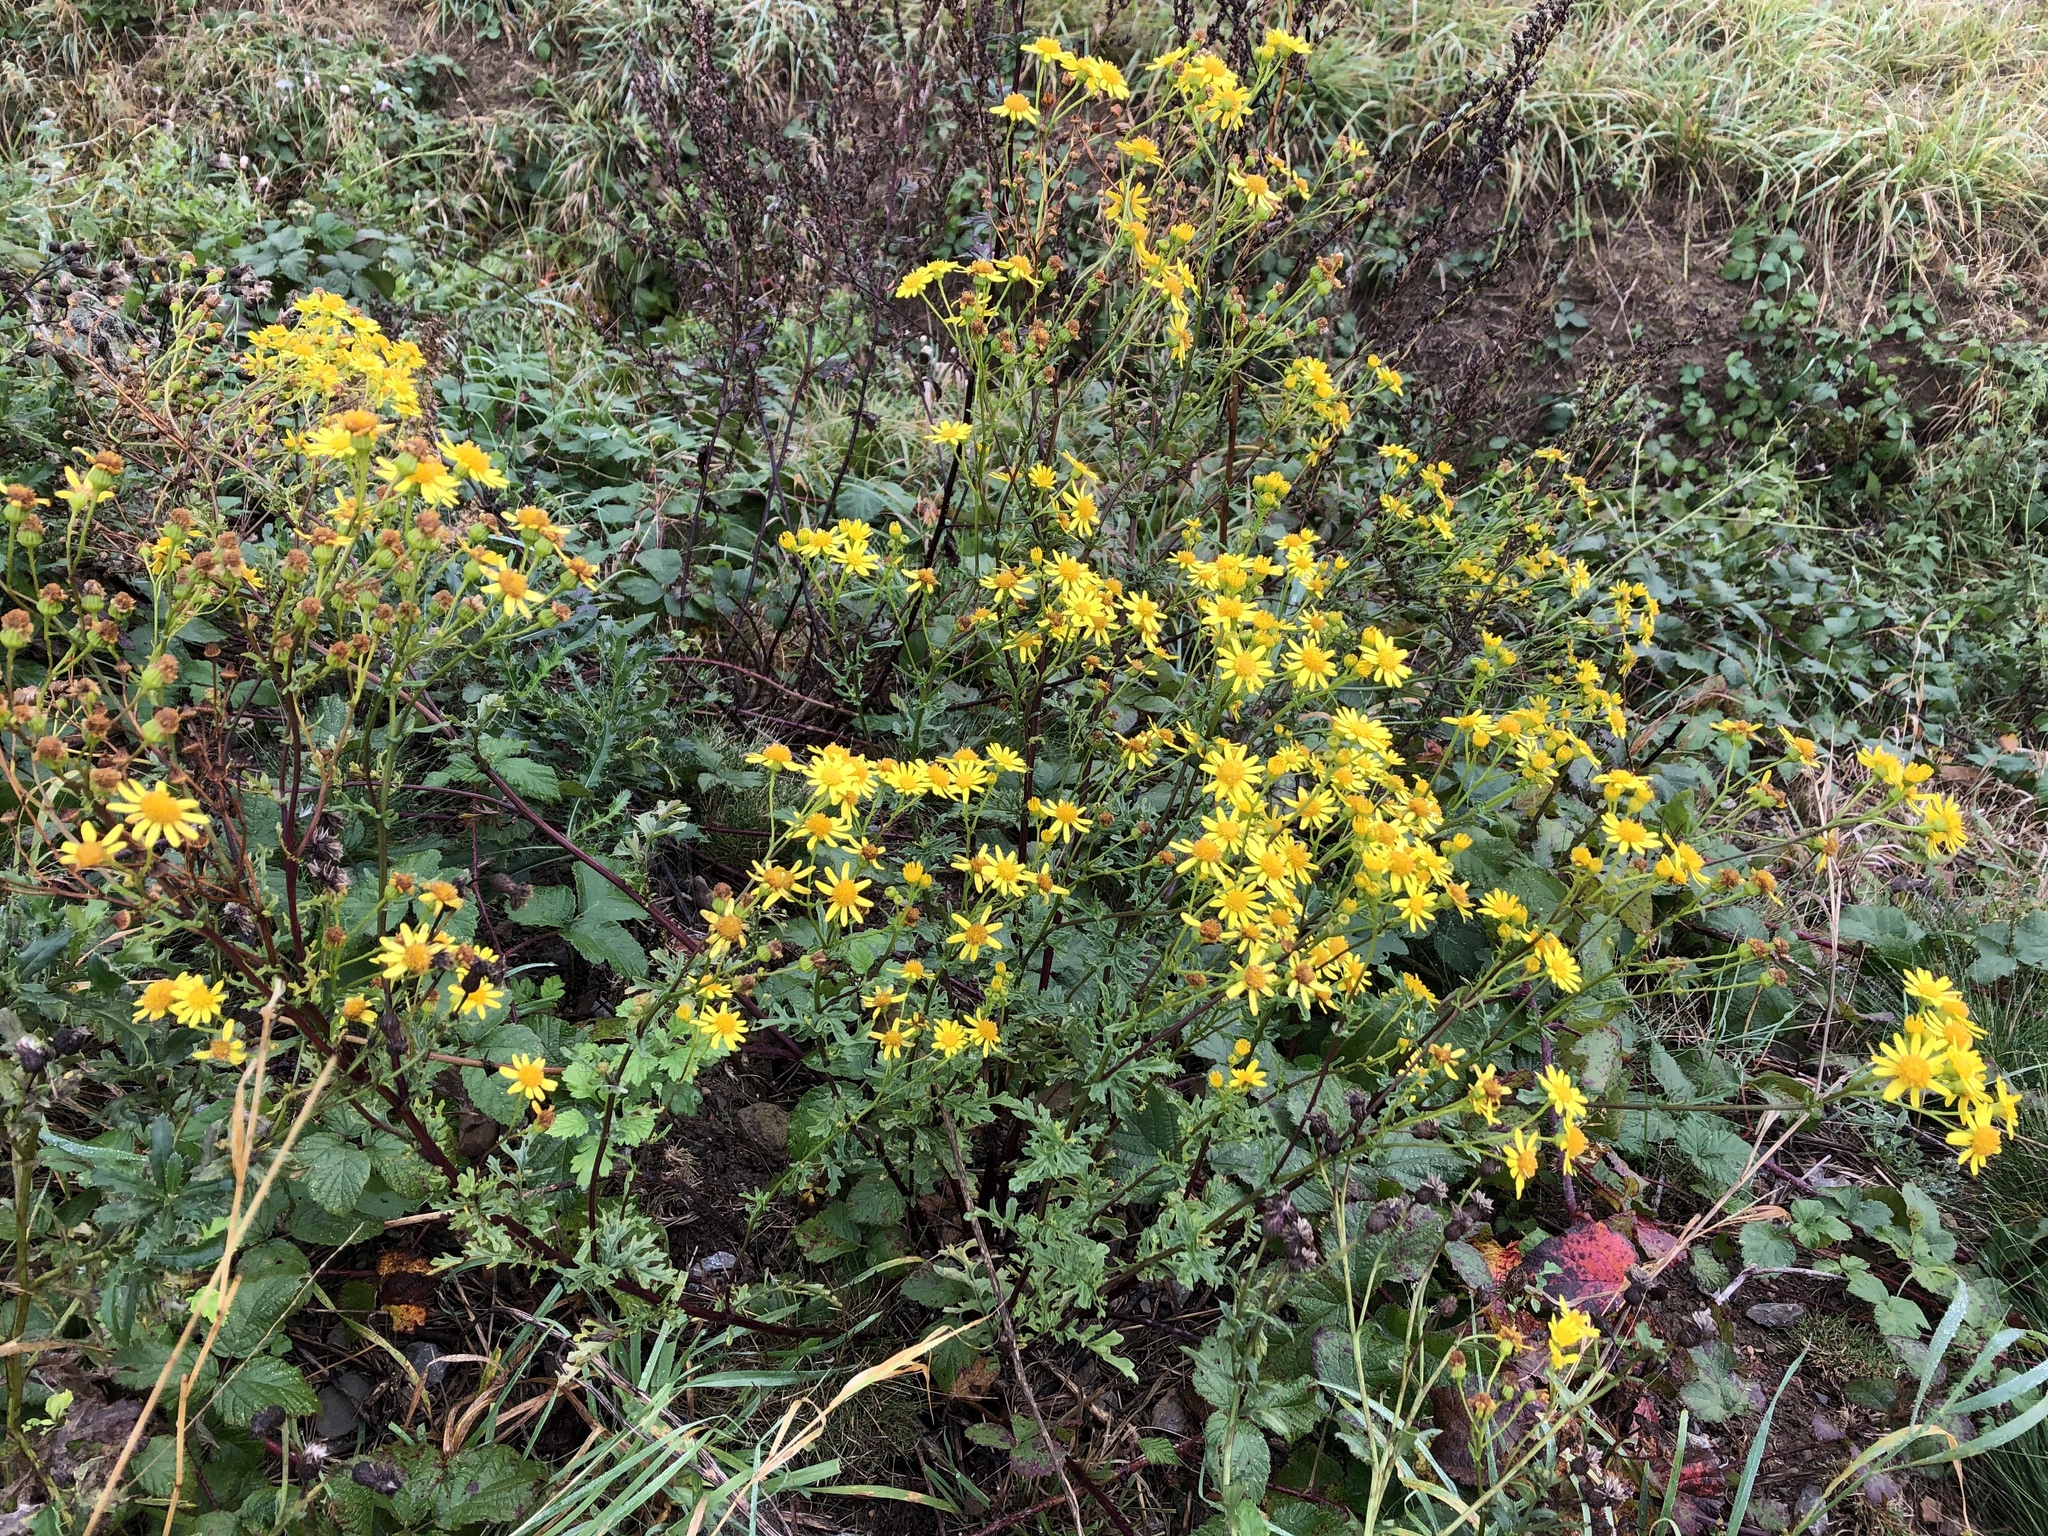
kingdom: Plantae
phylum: Tracheophyta
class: Magnoliopsida
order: Asterales
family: Asteraceae
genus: Jacobaea
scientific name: Jacobaea vulgaris
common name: Stinking willie
